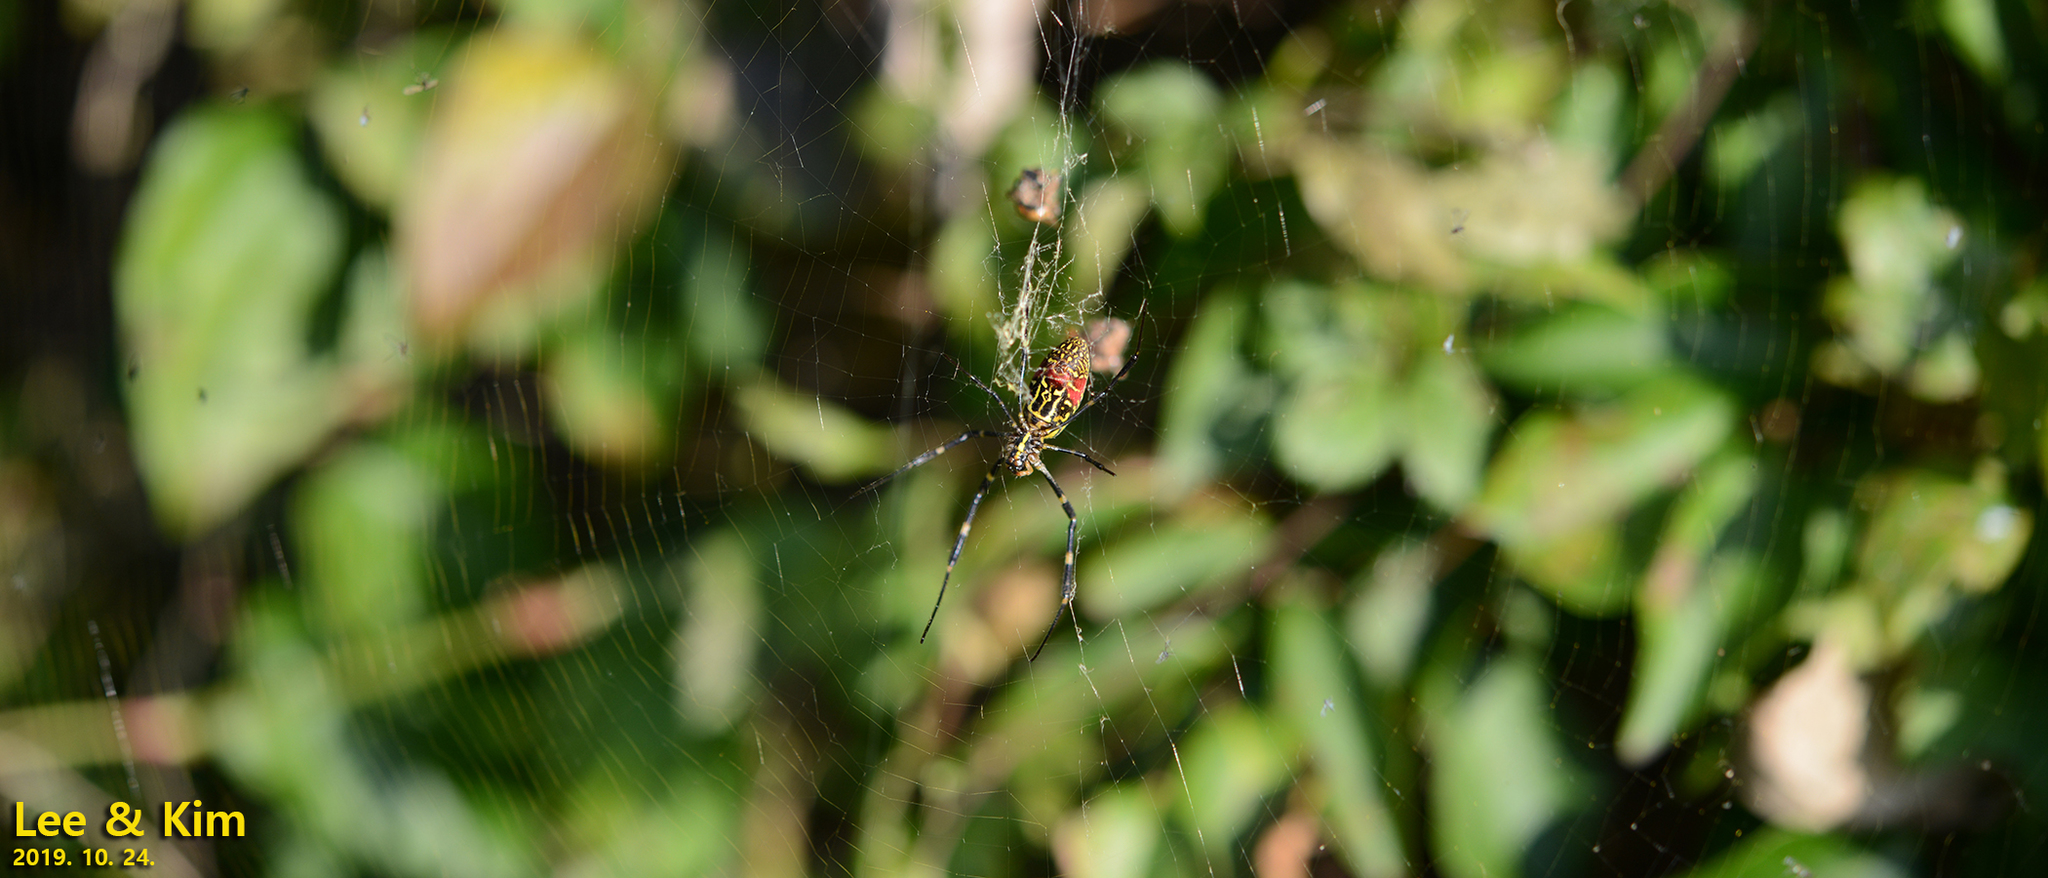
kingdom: Animalia
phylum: Arthropoda
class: Arachnida
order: Araneae
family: Araneidae
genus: Trichonephila
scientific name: Trichonephila clavata
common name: Jorō spider
